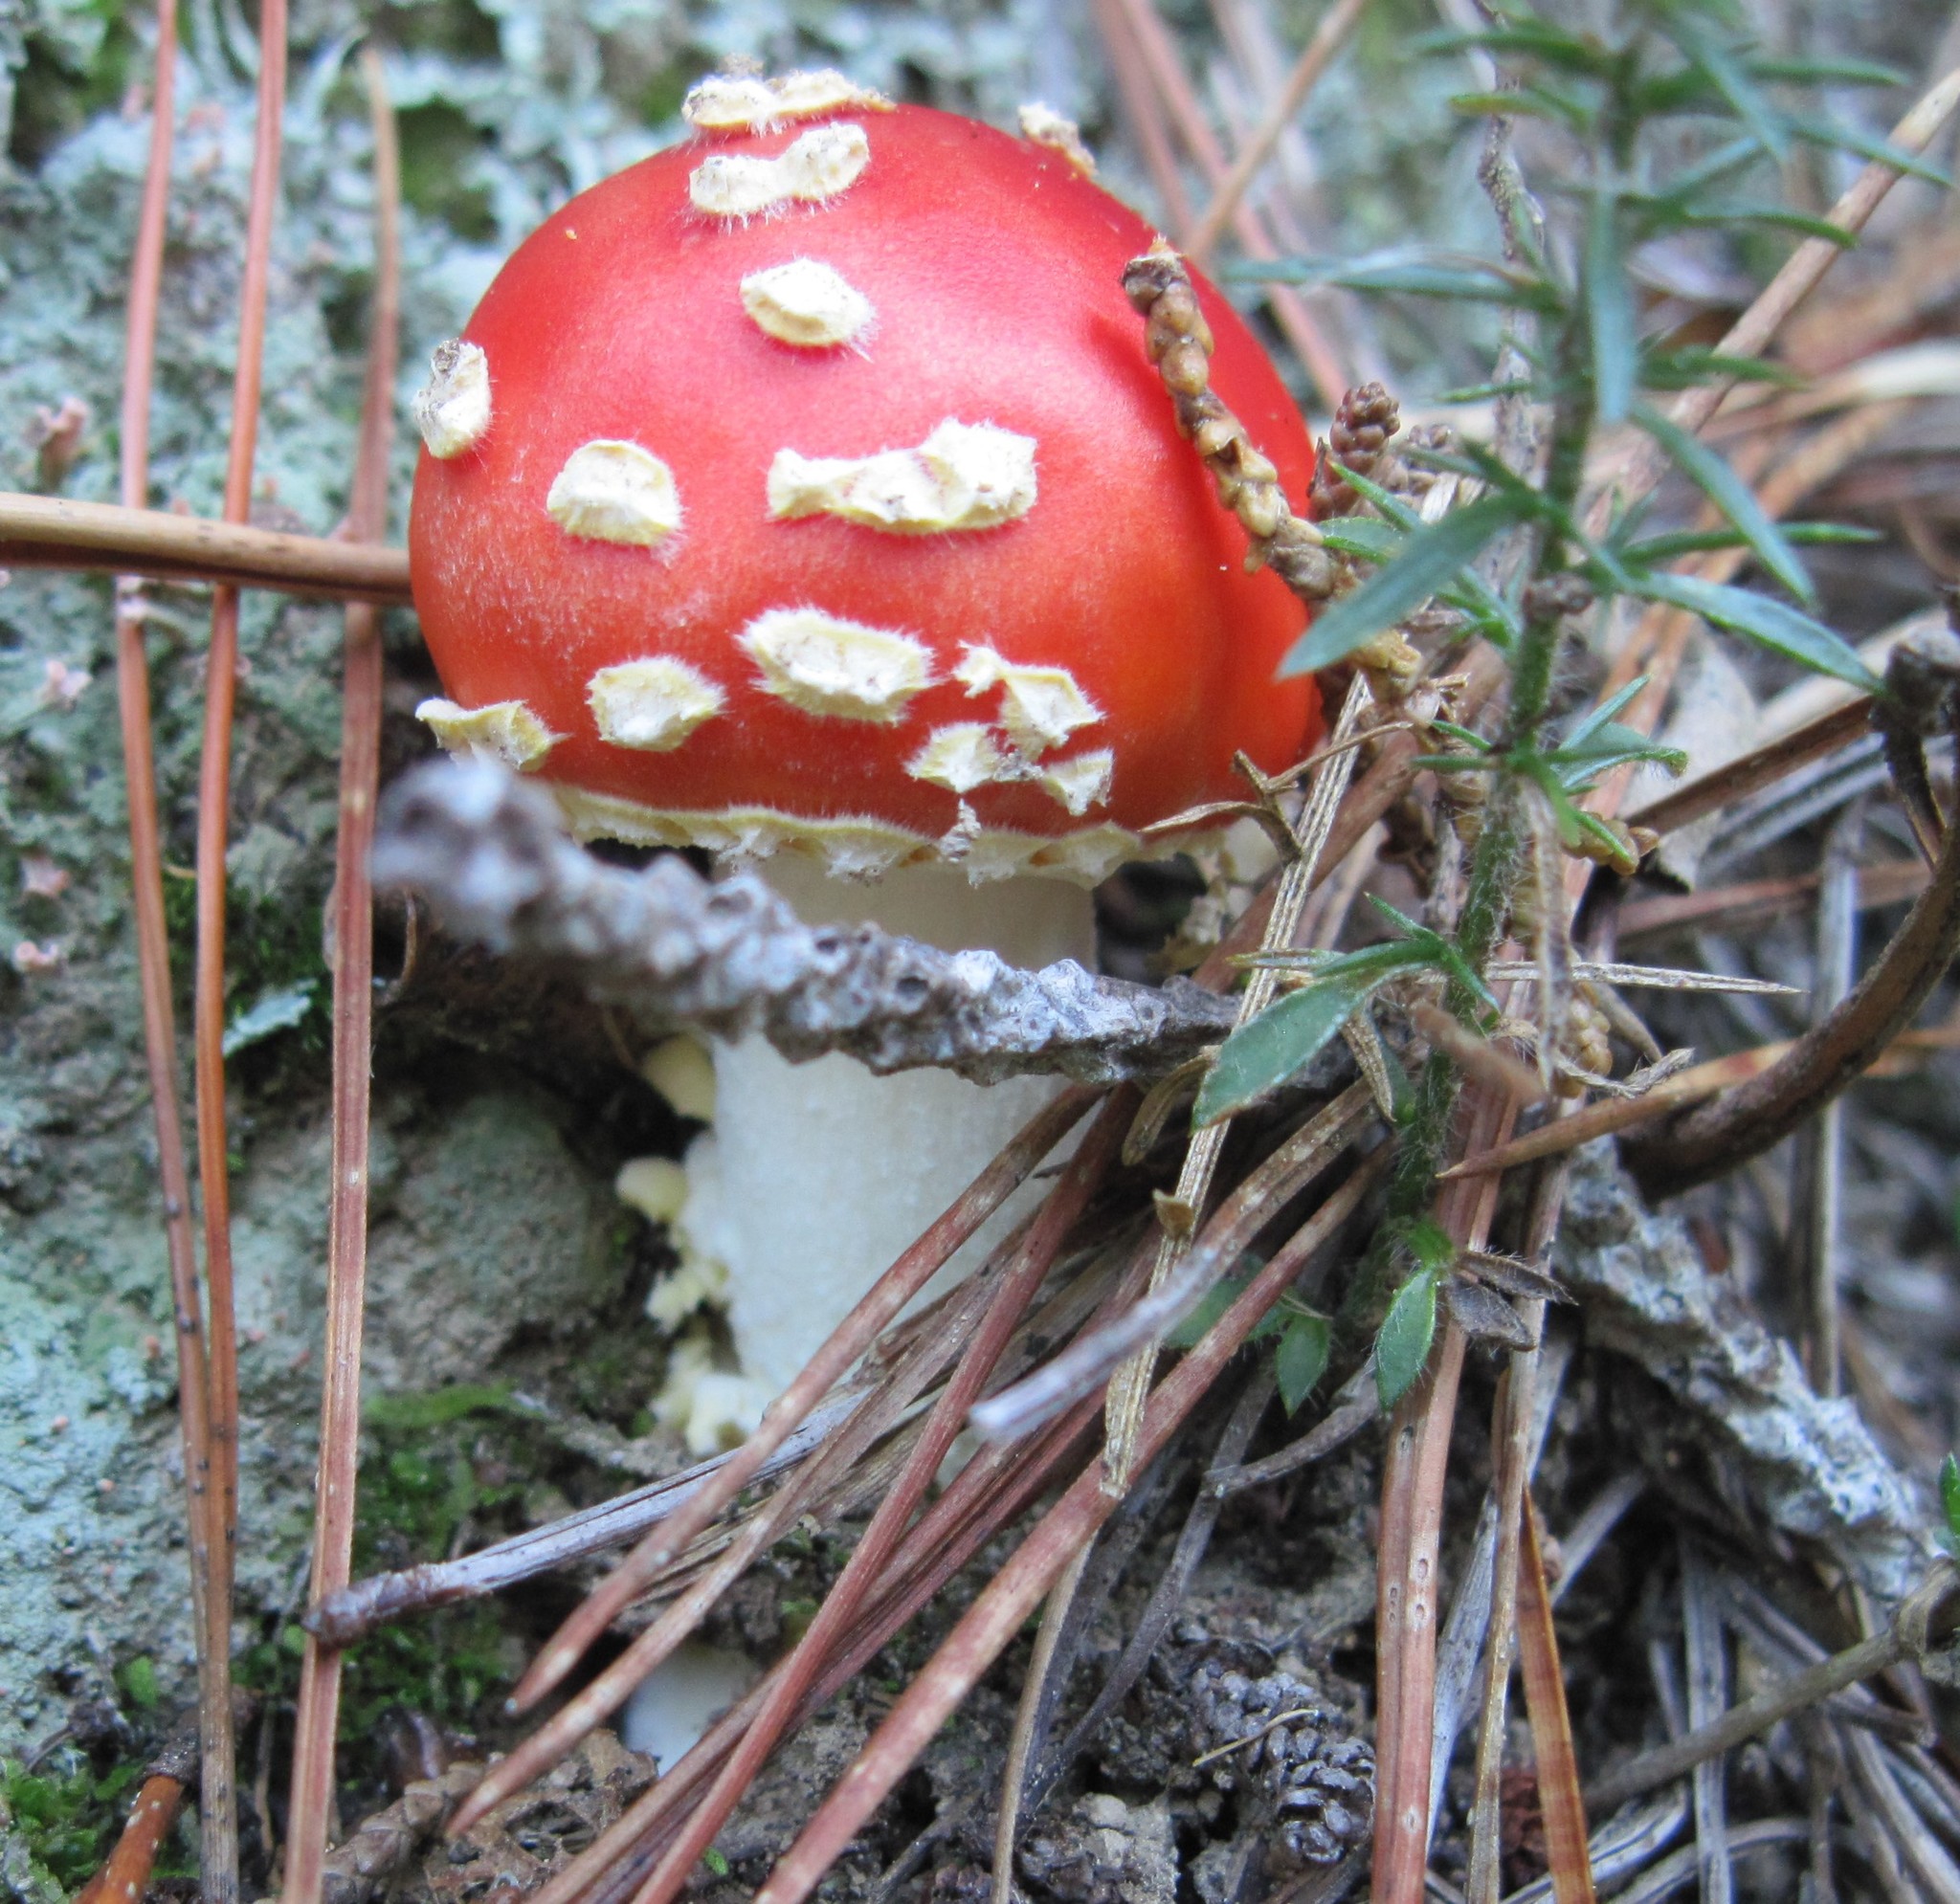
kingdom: Fungi
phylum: Basidiomycota
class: Agaricomycetes
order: Agaricales
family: Amanitaceae
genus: Amanita
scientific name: Amanita muscaria
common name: Fly agaric
